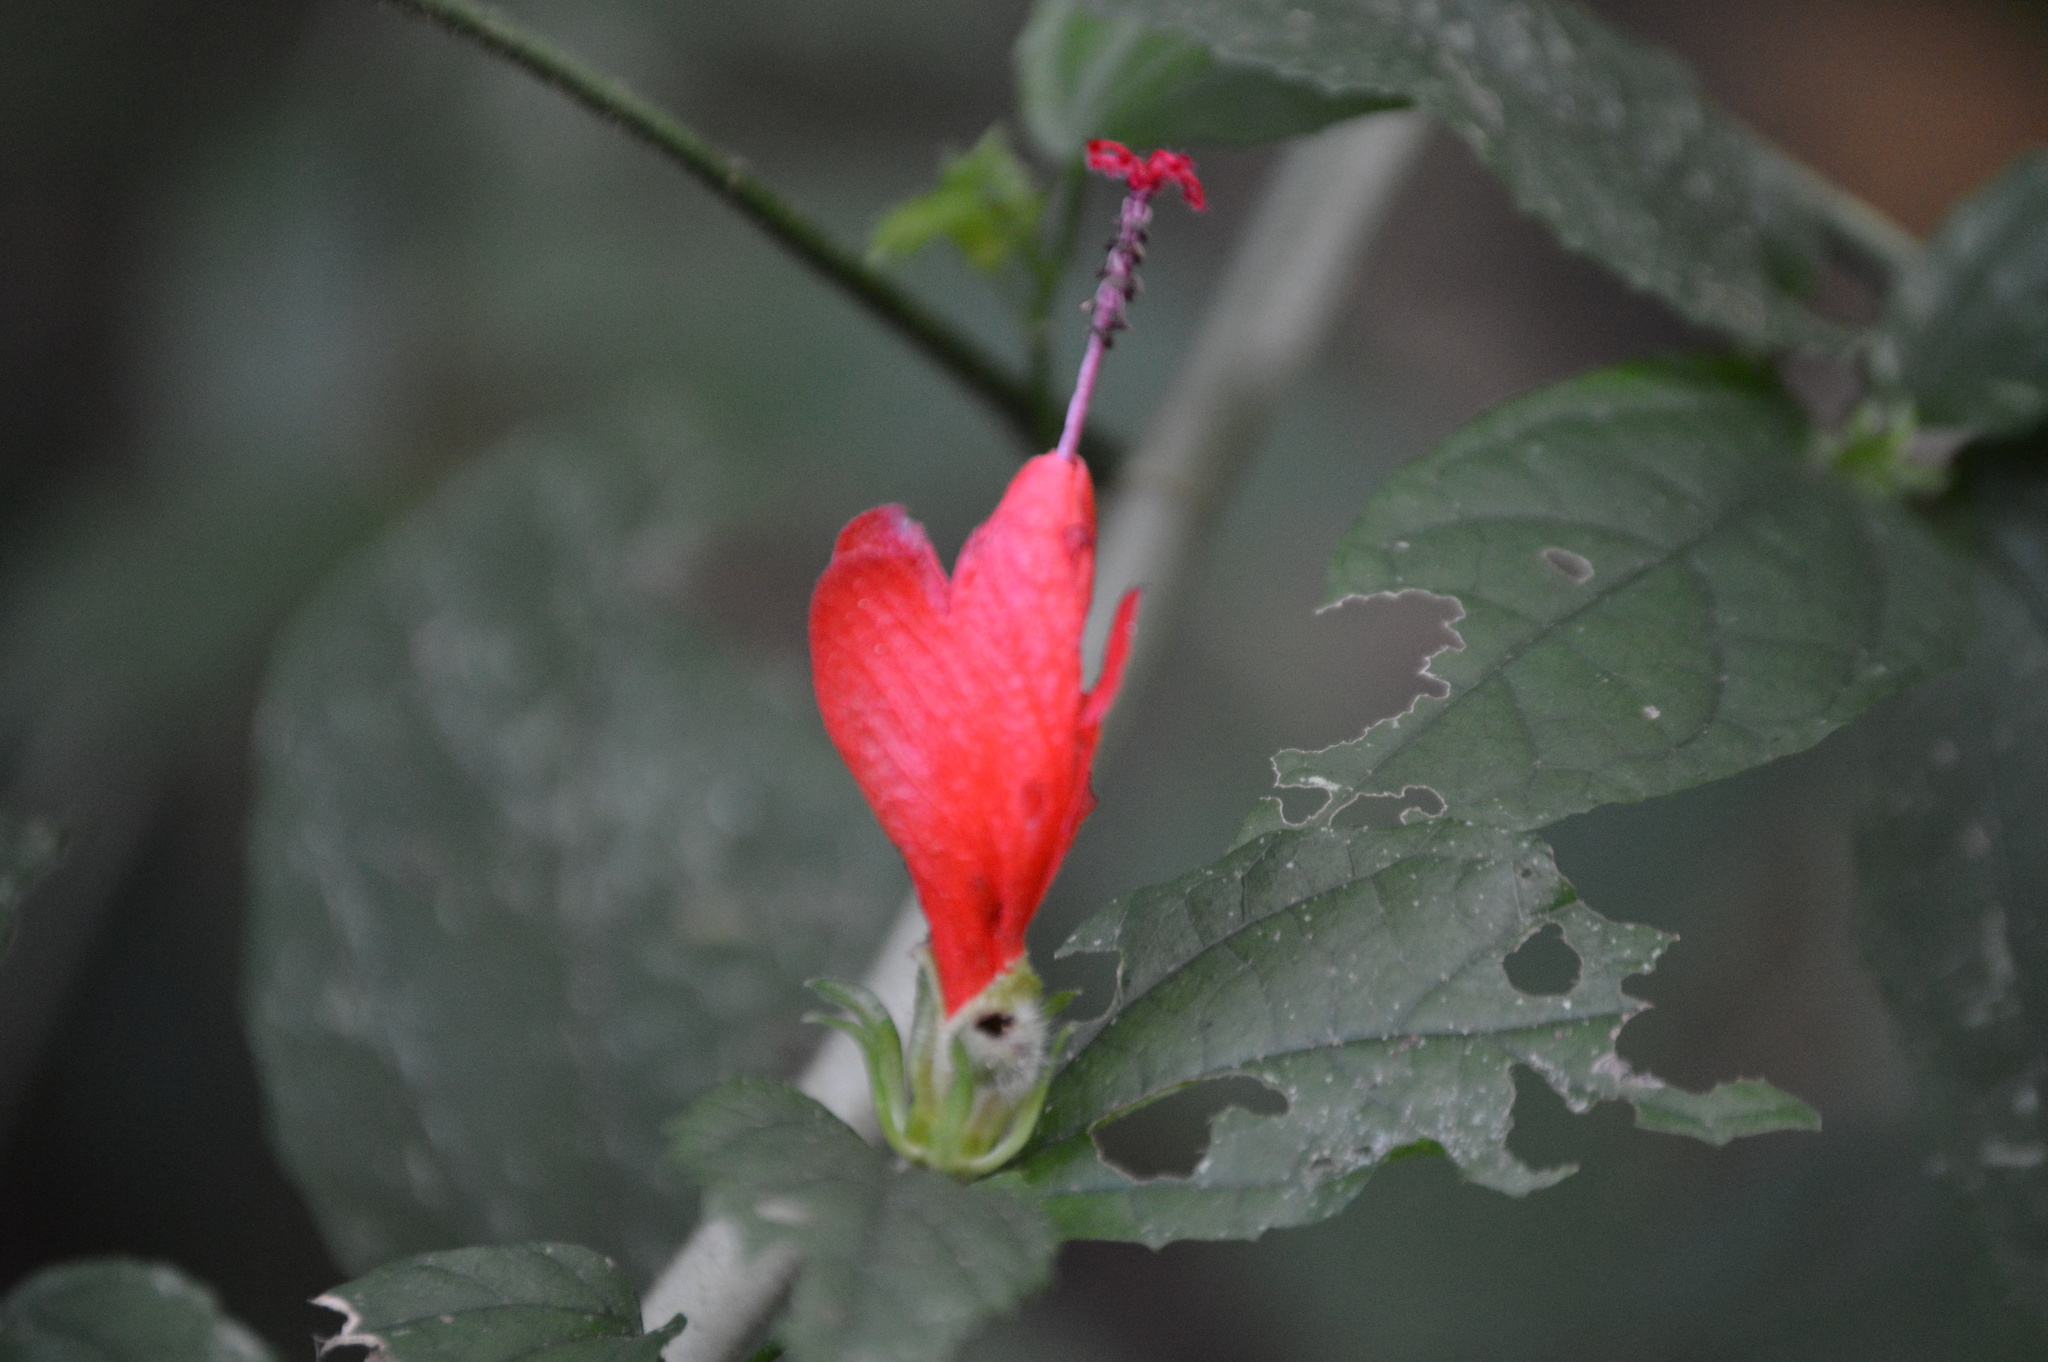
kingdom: Plantae
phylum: Tracheophyta
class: Magnoliopsida
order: Malvales
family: Malvaceae
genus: Malvaviscus
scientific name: Malvaviscus arboreus
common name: Wax mallow
